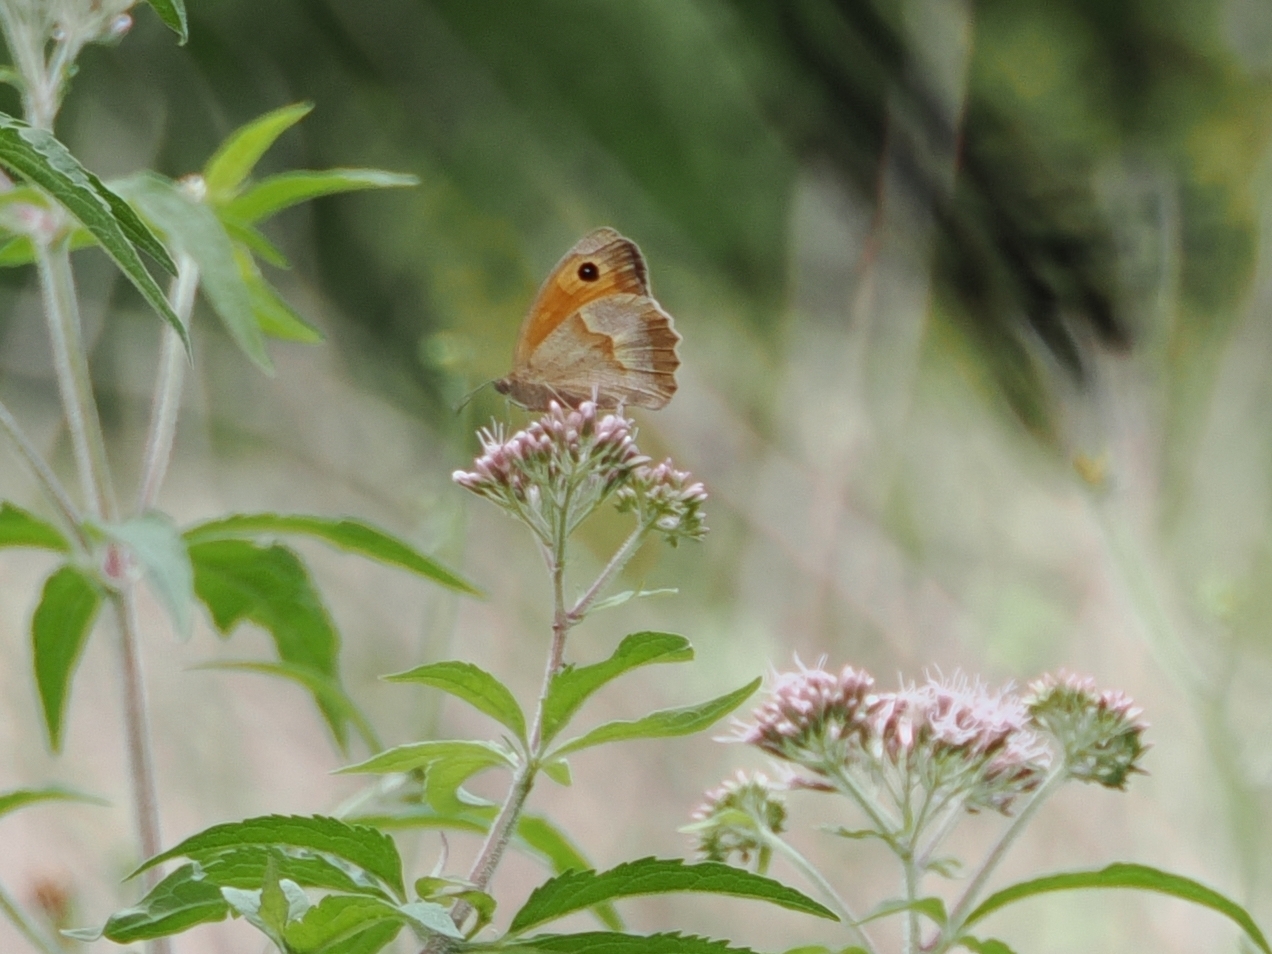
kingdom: Animalia
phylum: Arthropoda
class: Insecta
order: Lepidoptera
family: Nymphalidae
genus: Maniola
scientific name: Maniola jurtina
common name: Meadow brown
